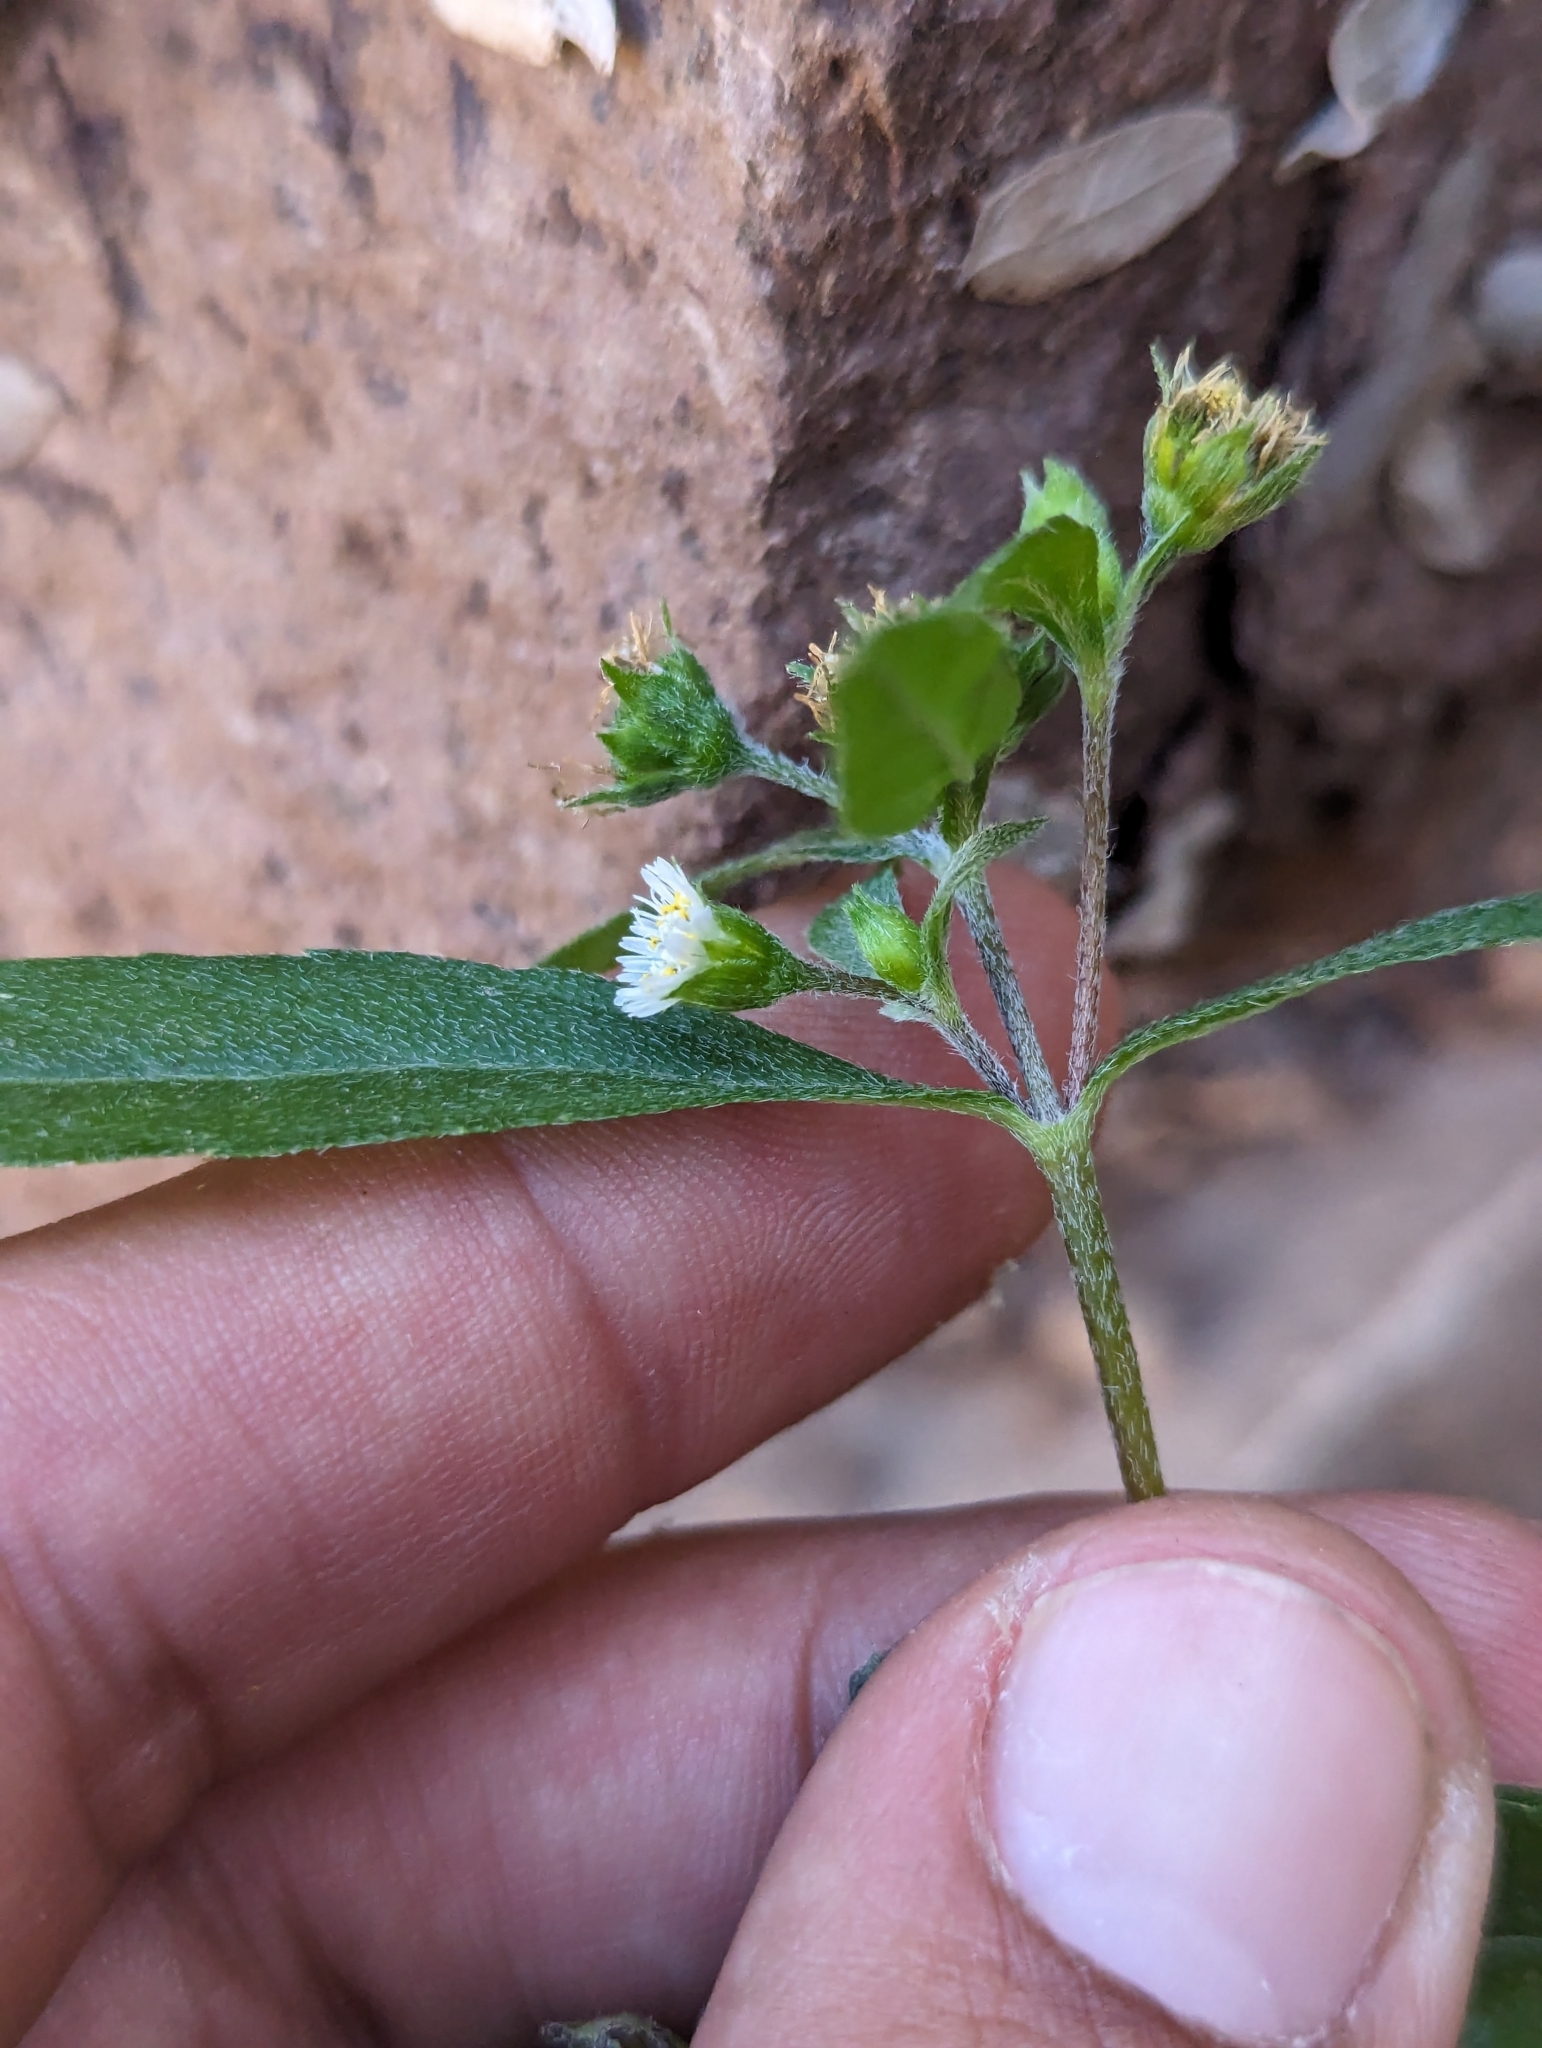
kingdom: Plantae
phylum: Tracheophyta
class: Magnoliopsida
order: Asterales
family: Asteraceae
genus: Eclipta
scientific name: Eclipta prostrata
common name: False daisy
